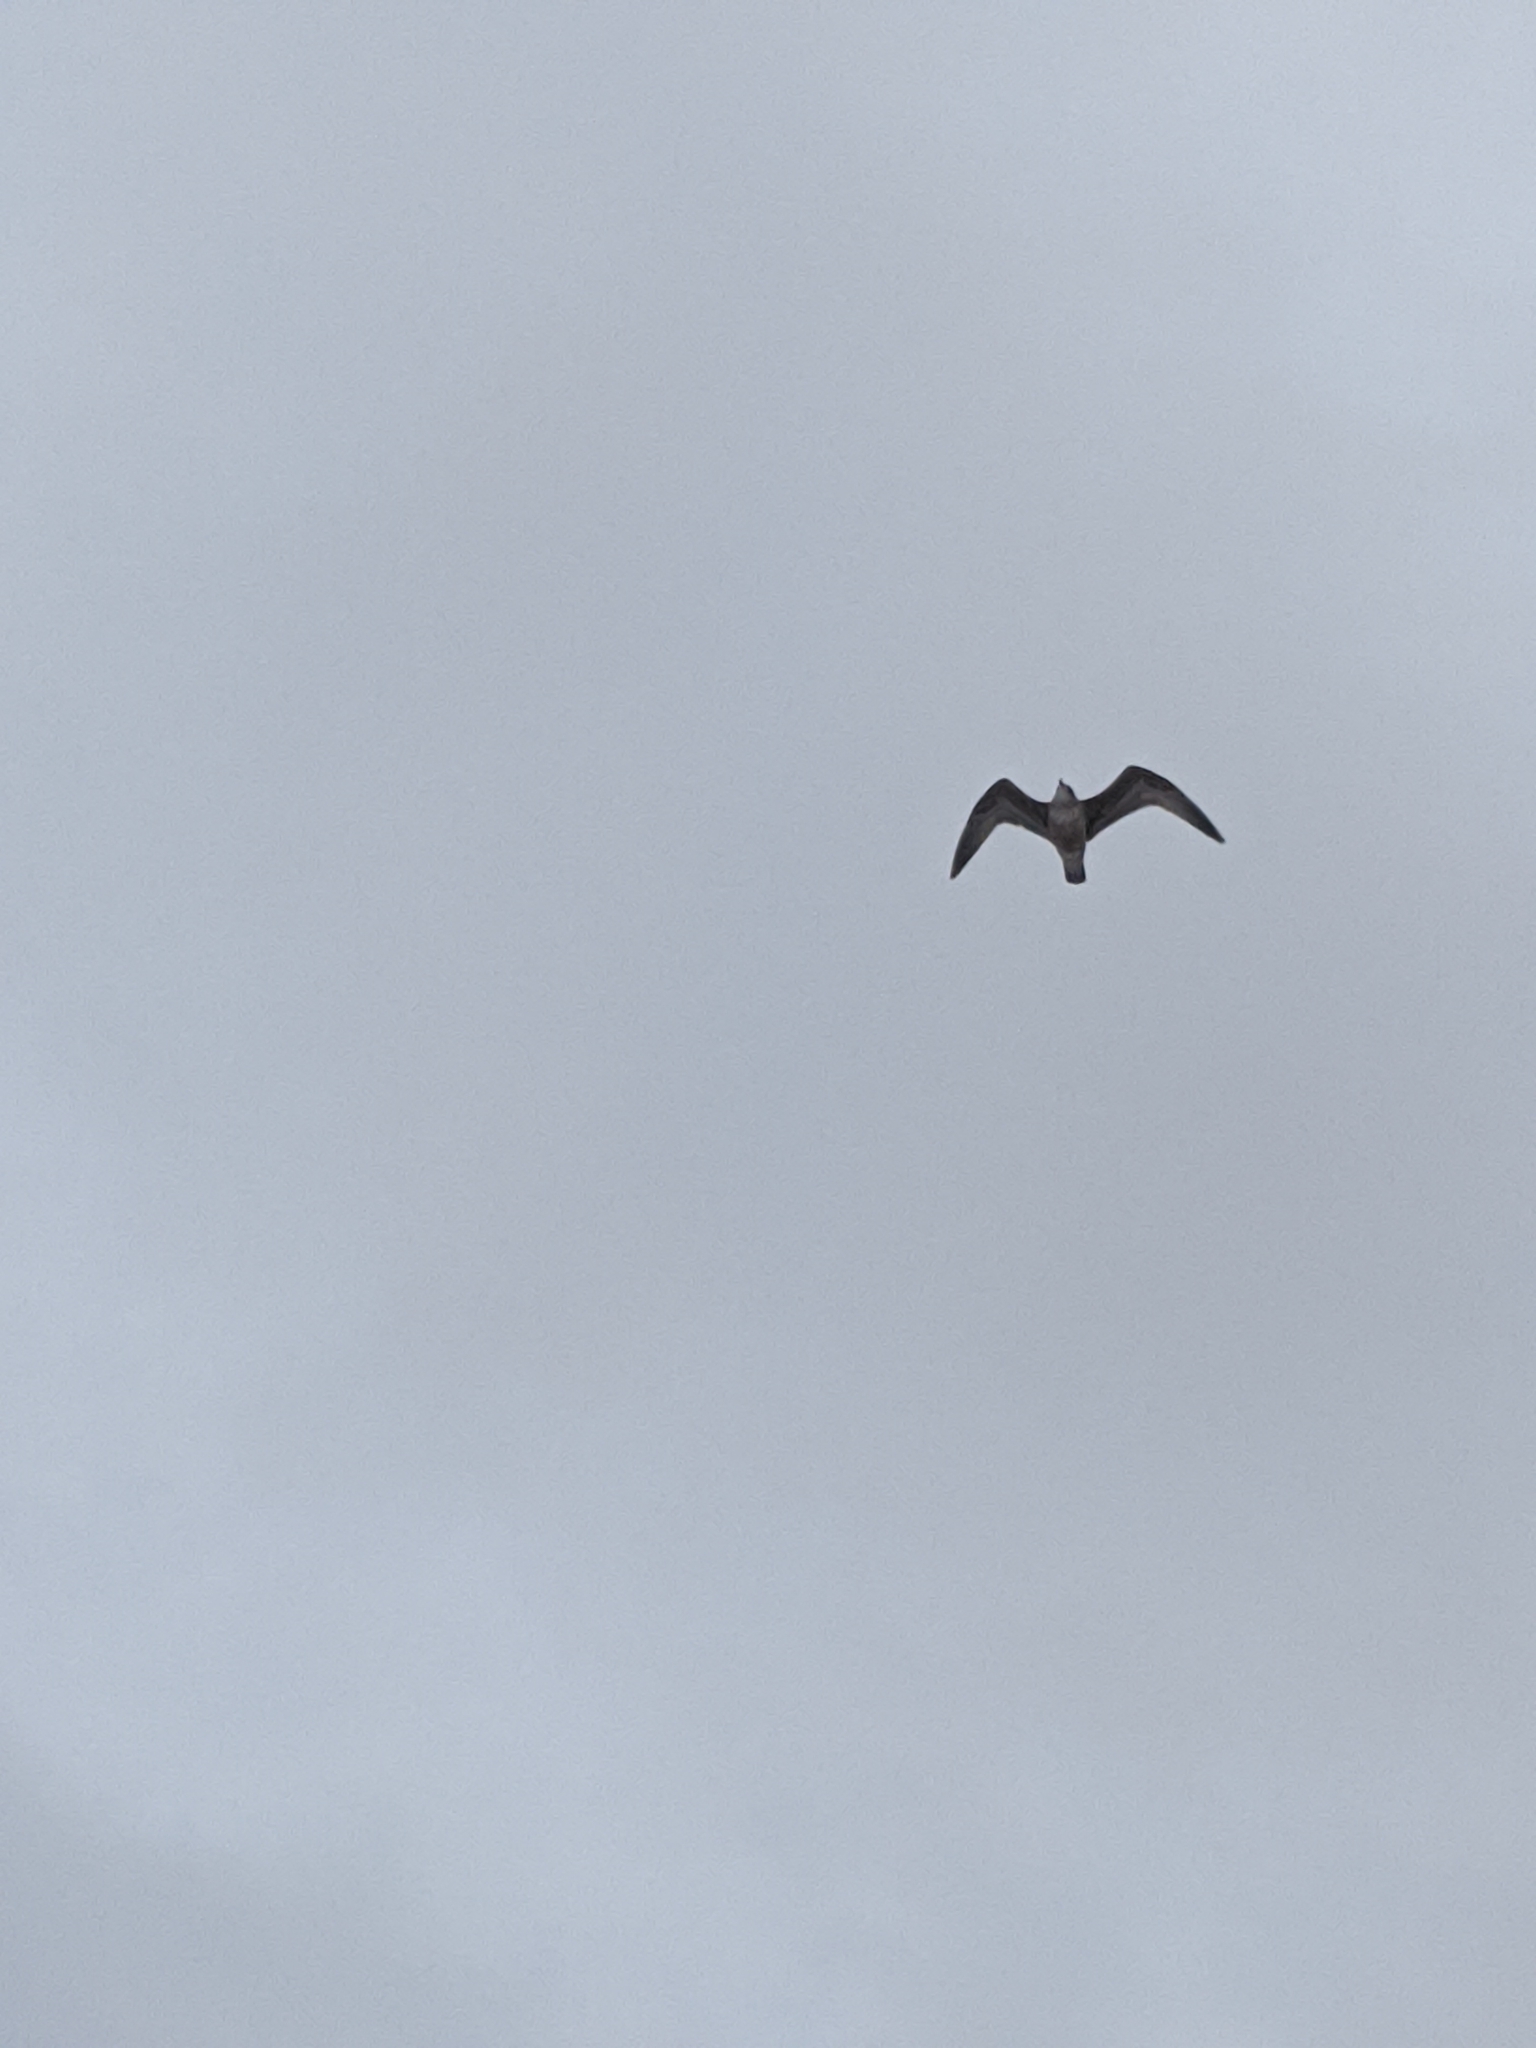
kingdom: Animalia
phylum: Chordata
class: Aves
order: Charadriiformes
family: Laridae
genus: Larus
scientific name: Larus argentatus
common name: Herring gull
